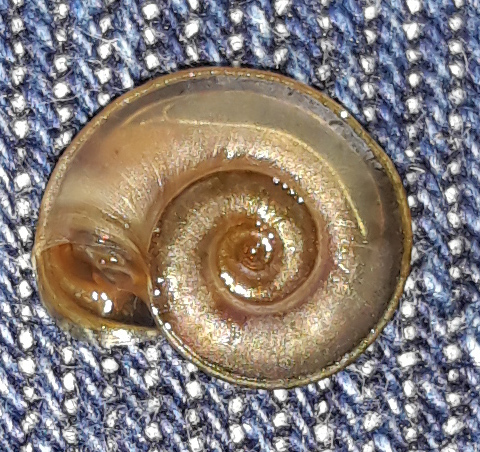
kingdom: Animalia
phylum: Mollusca
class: Gastropoda
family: Planorbidae
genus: Planorbis
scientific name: Planorbis carinatus
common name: Keeled ramshorn
